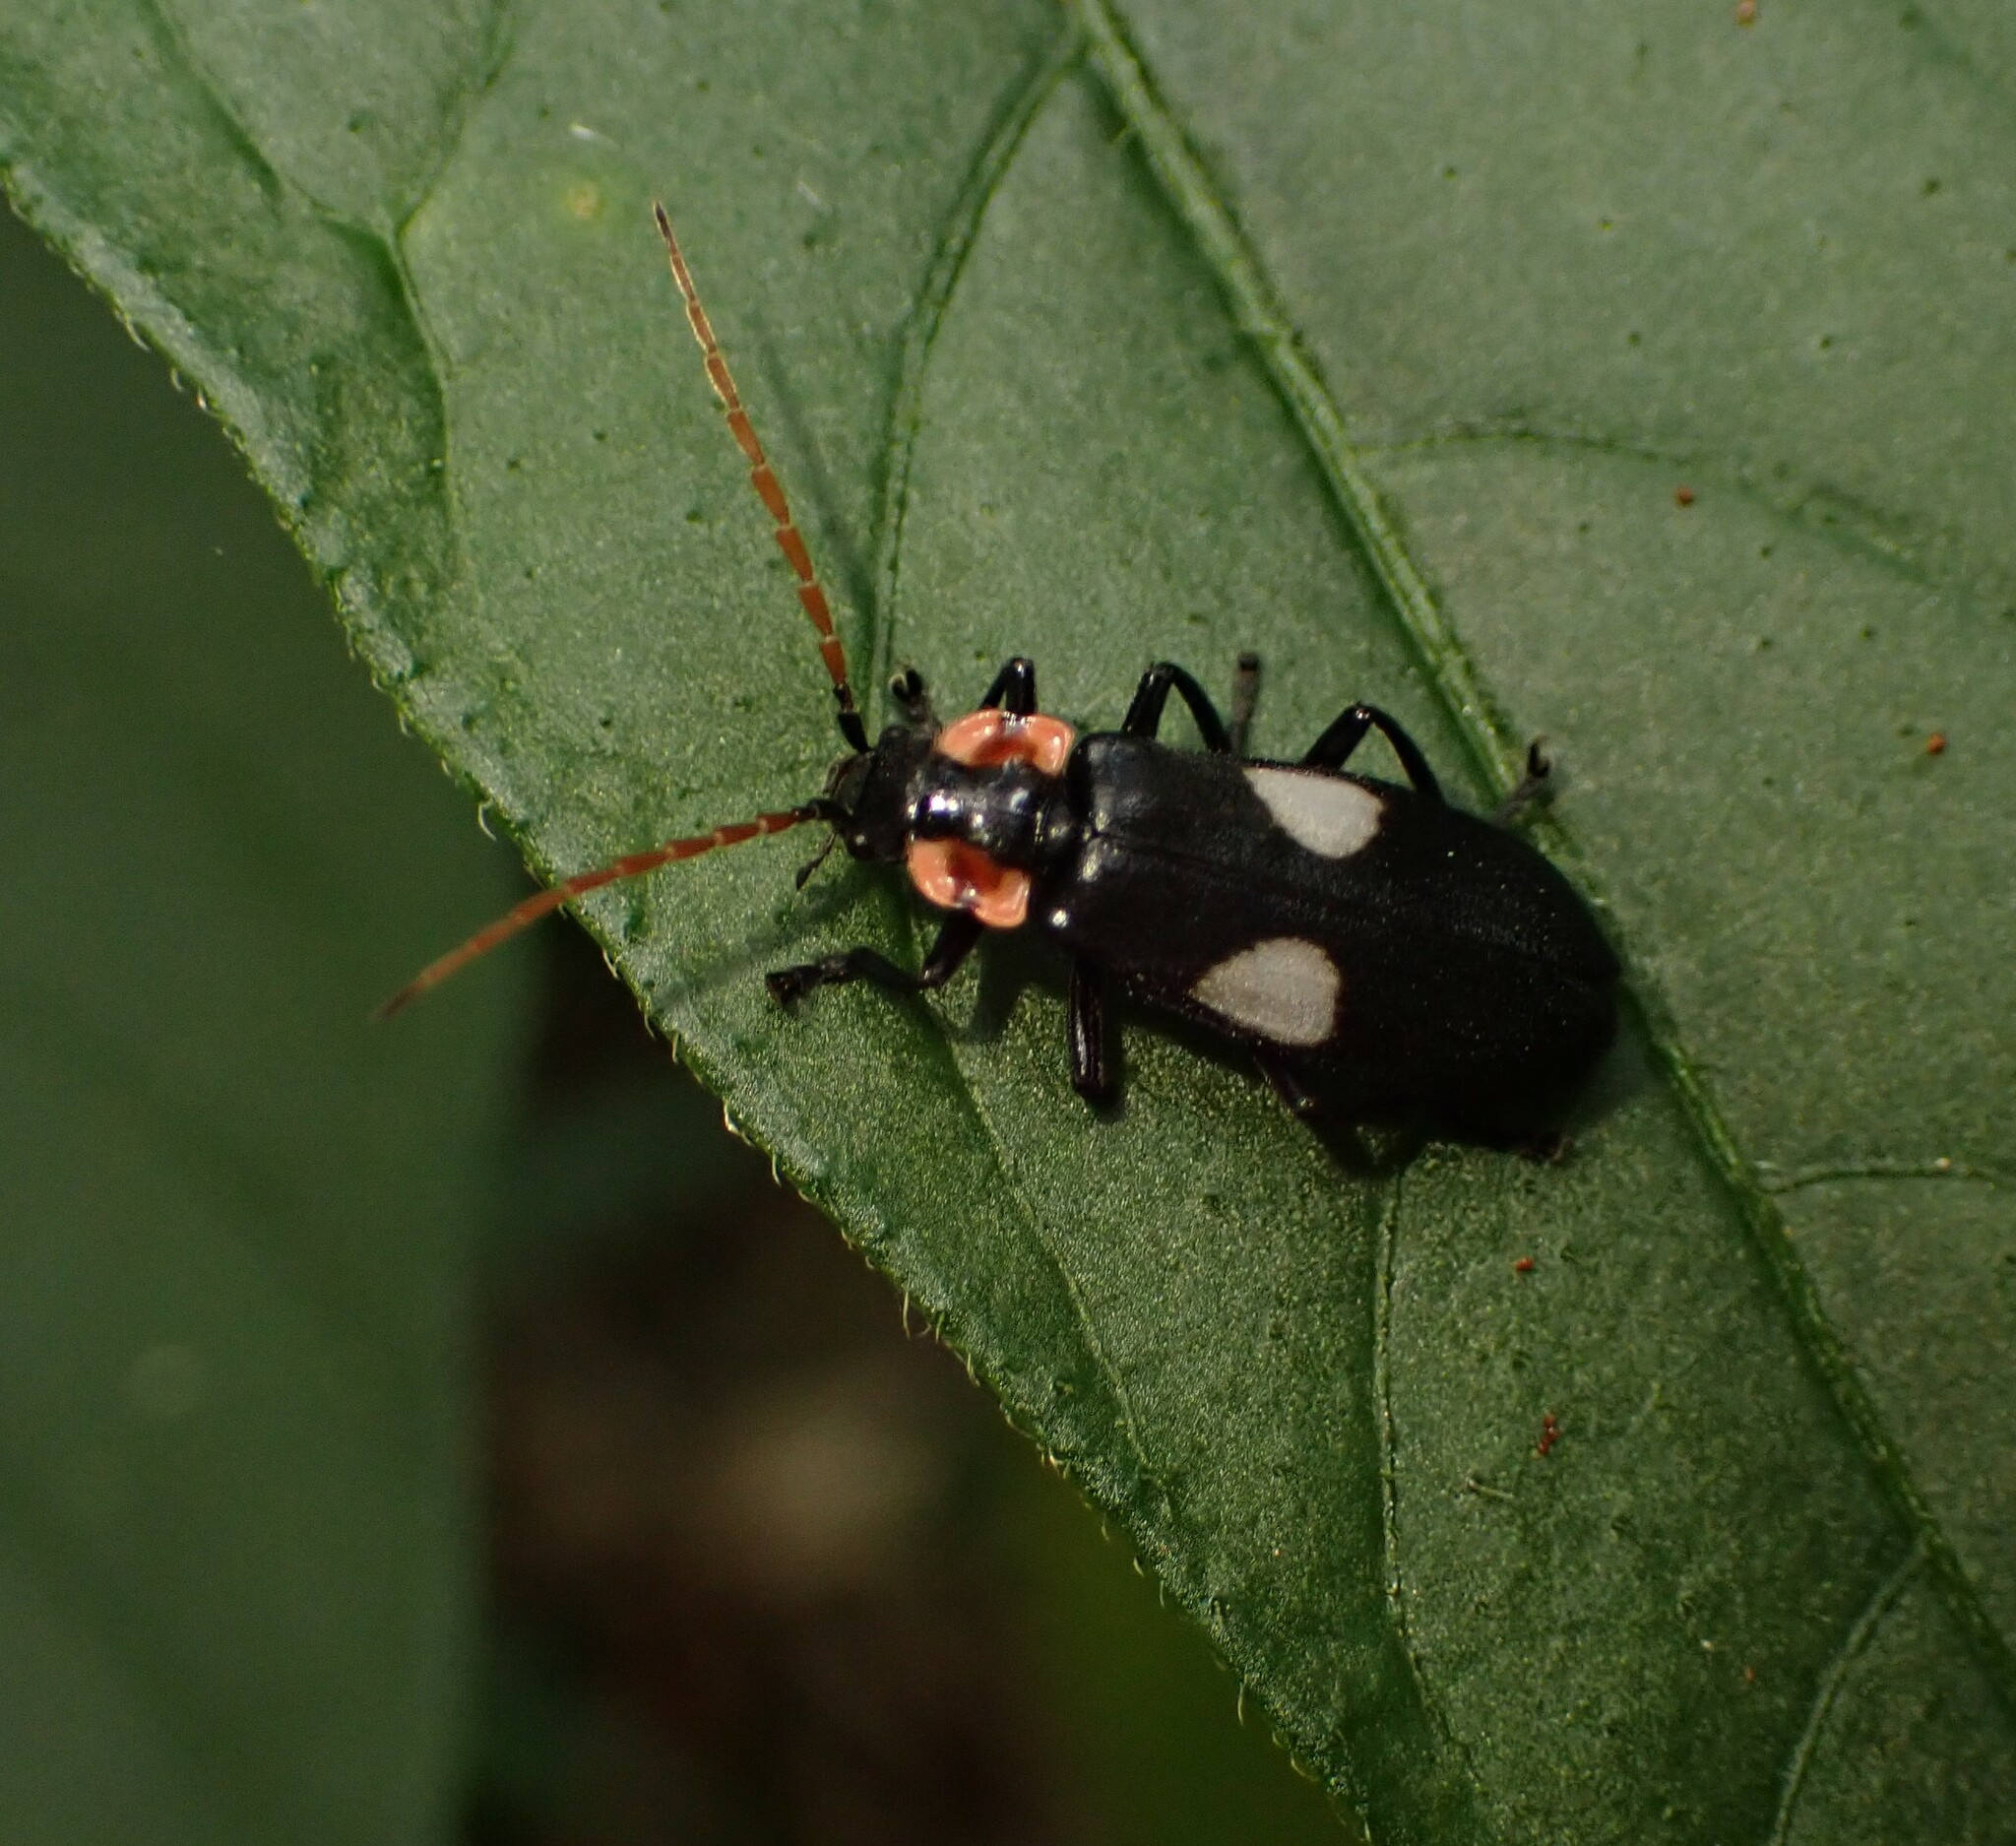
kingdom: Animalia
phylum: Arthropoda
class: Insecta
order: Coleoptera
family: Cantharidae
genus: Discodon
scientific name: Discodon tricolor
